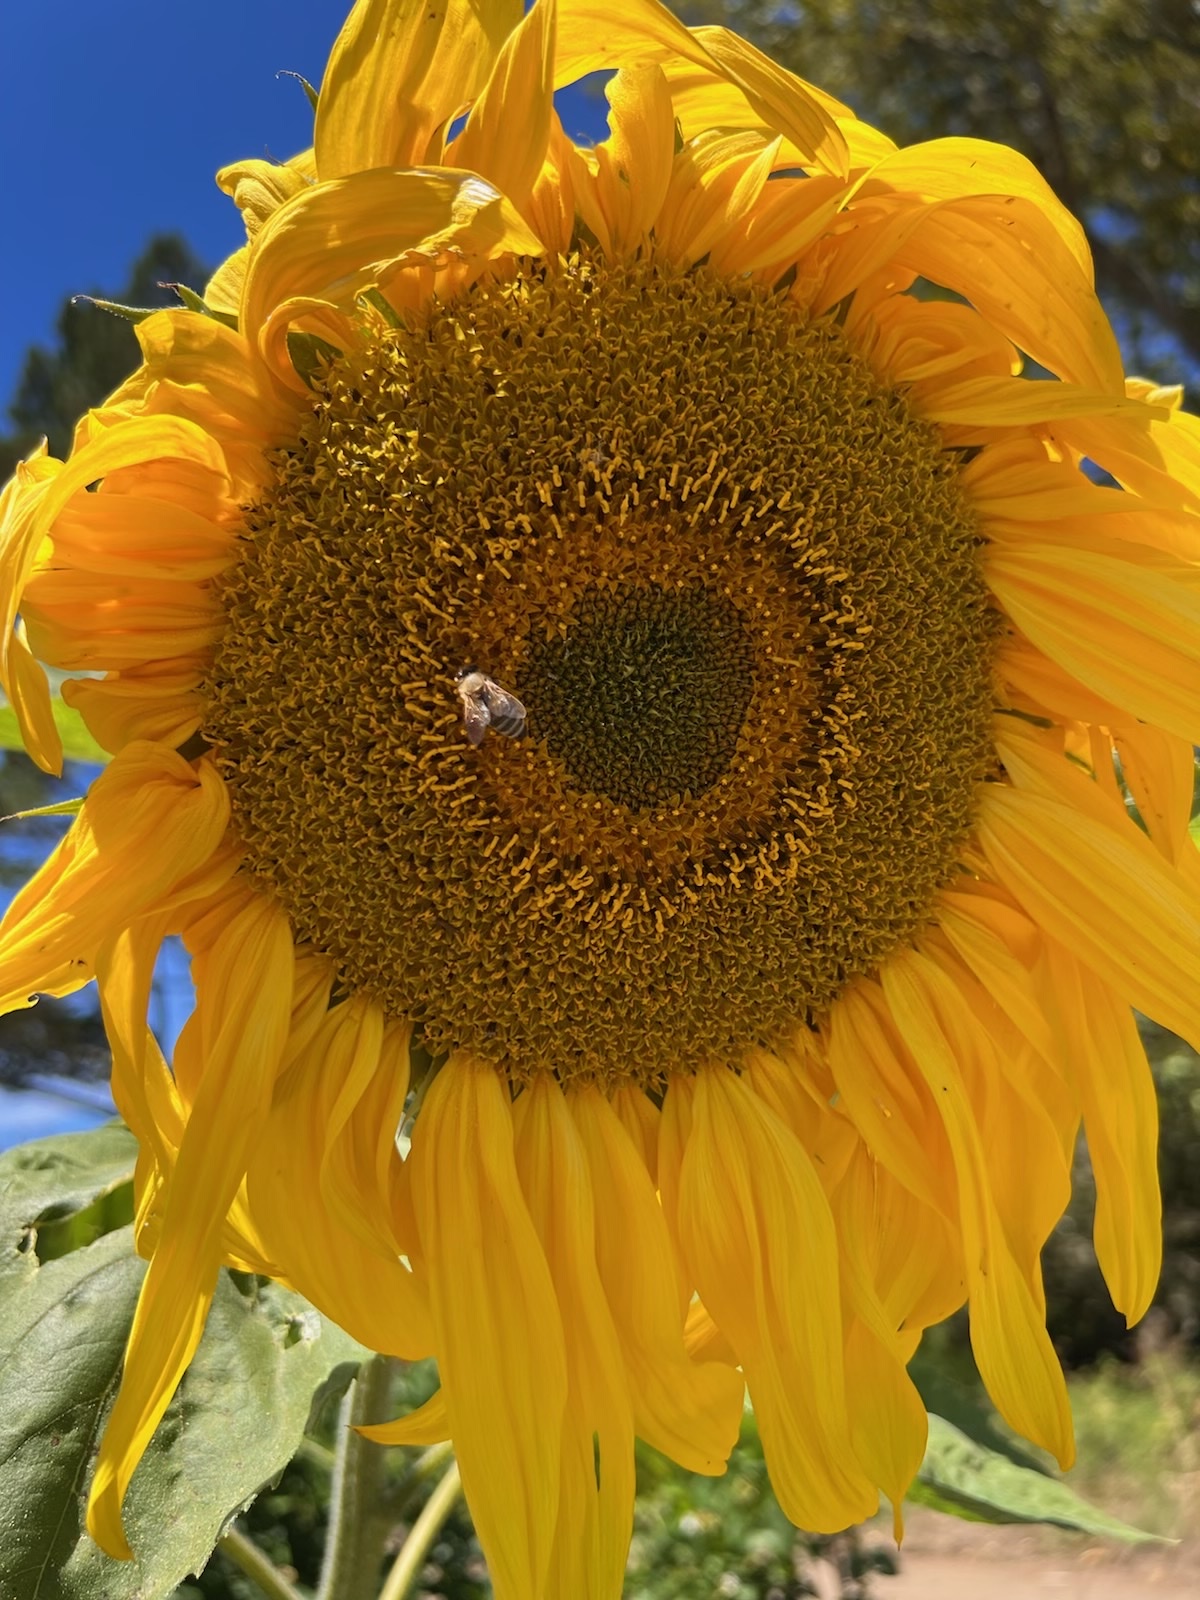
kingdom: Plantae
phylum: Tracheophyta
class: Magnoliopsida
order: Asterales
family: Asteraceae
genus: Helianthus
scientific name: Helianthus annuus
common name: Sunflower
